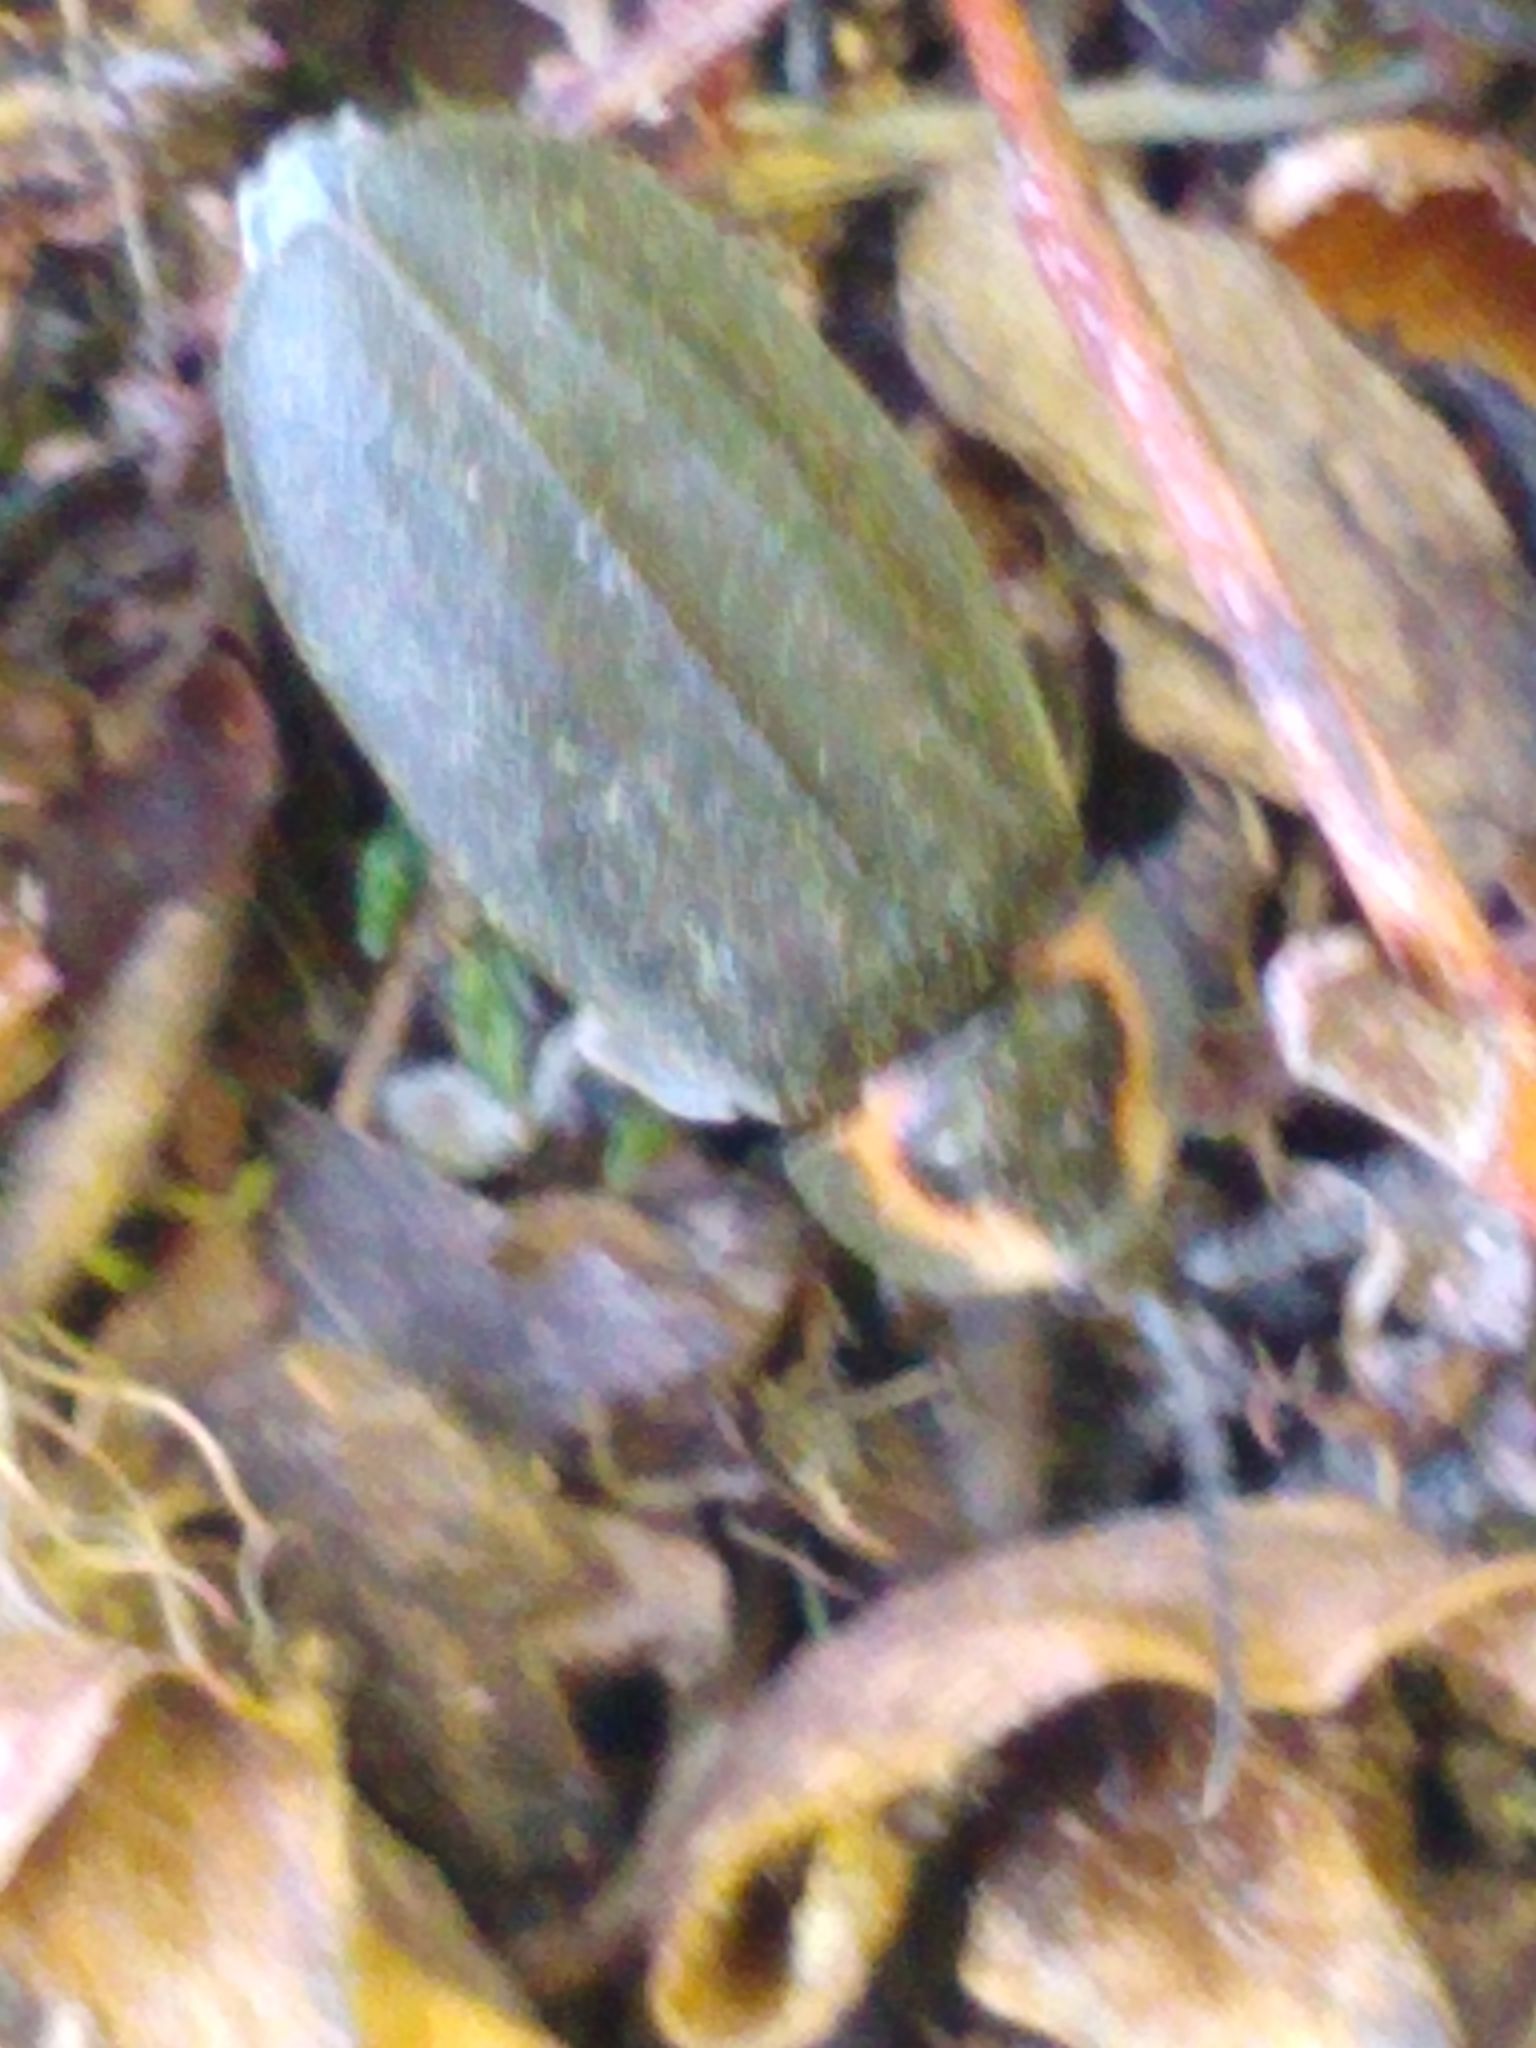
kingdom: Animalia
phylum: Arthropoda
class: Insecta
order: Coleoptera
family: Lampyridae
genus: Photinus
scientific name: Photinus corrusca
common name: Winter firefly
